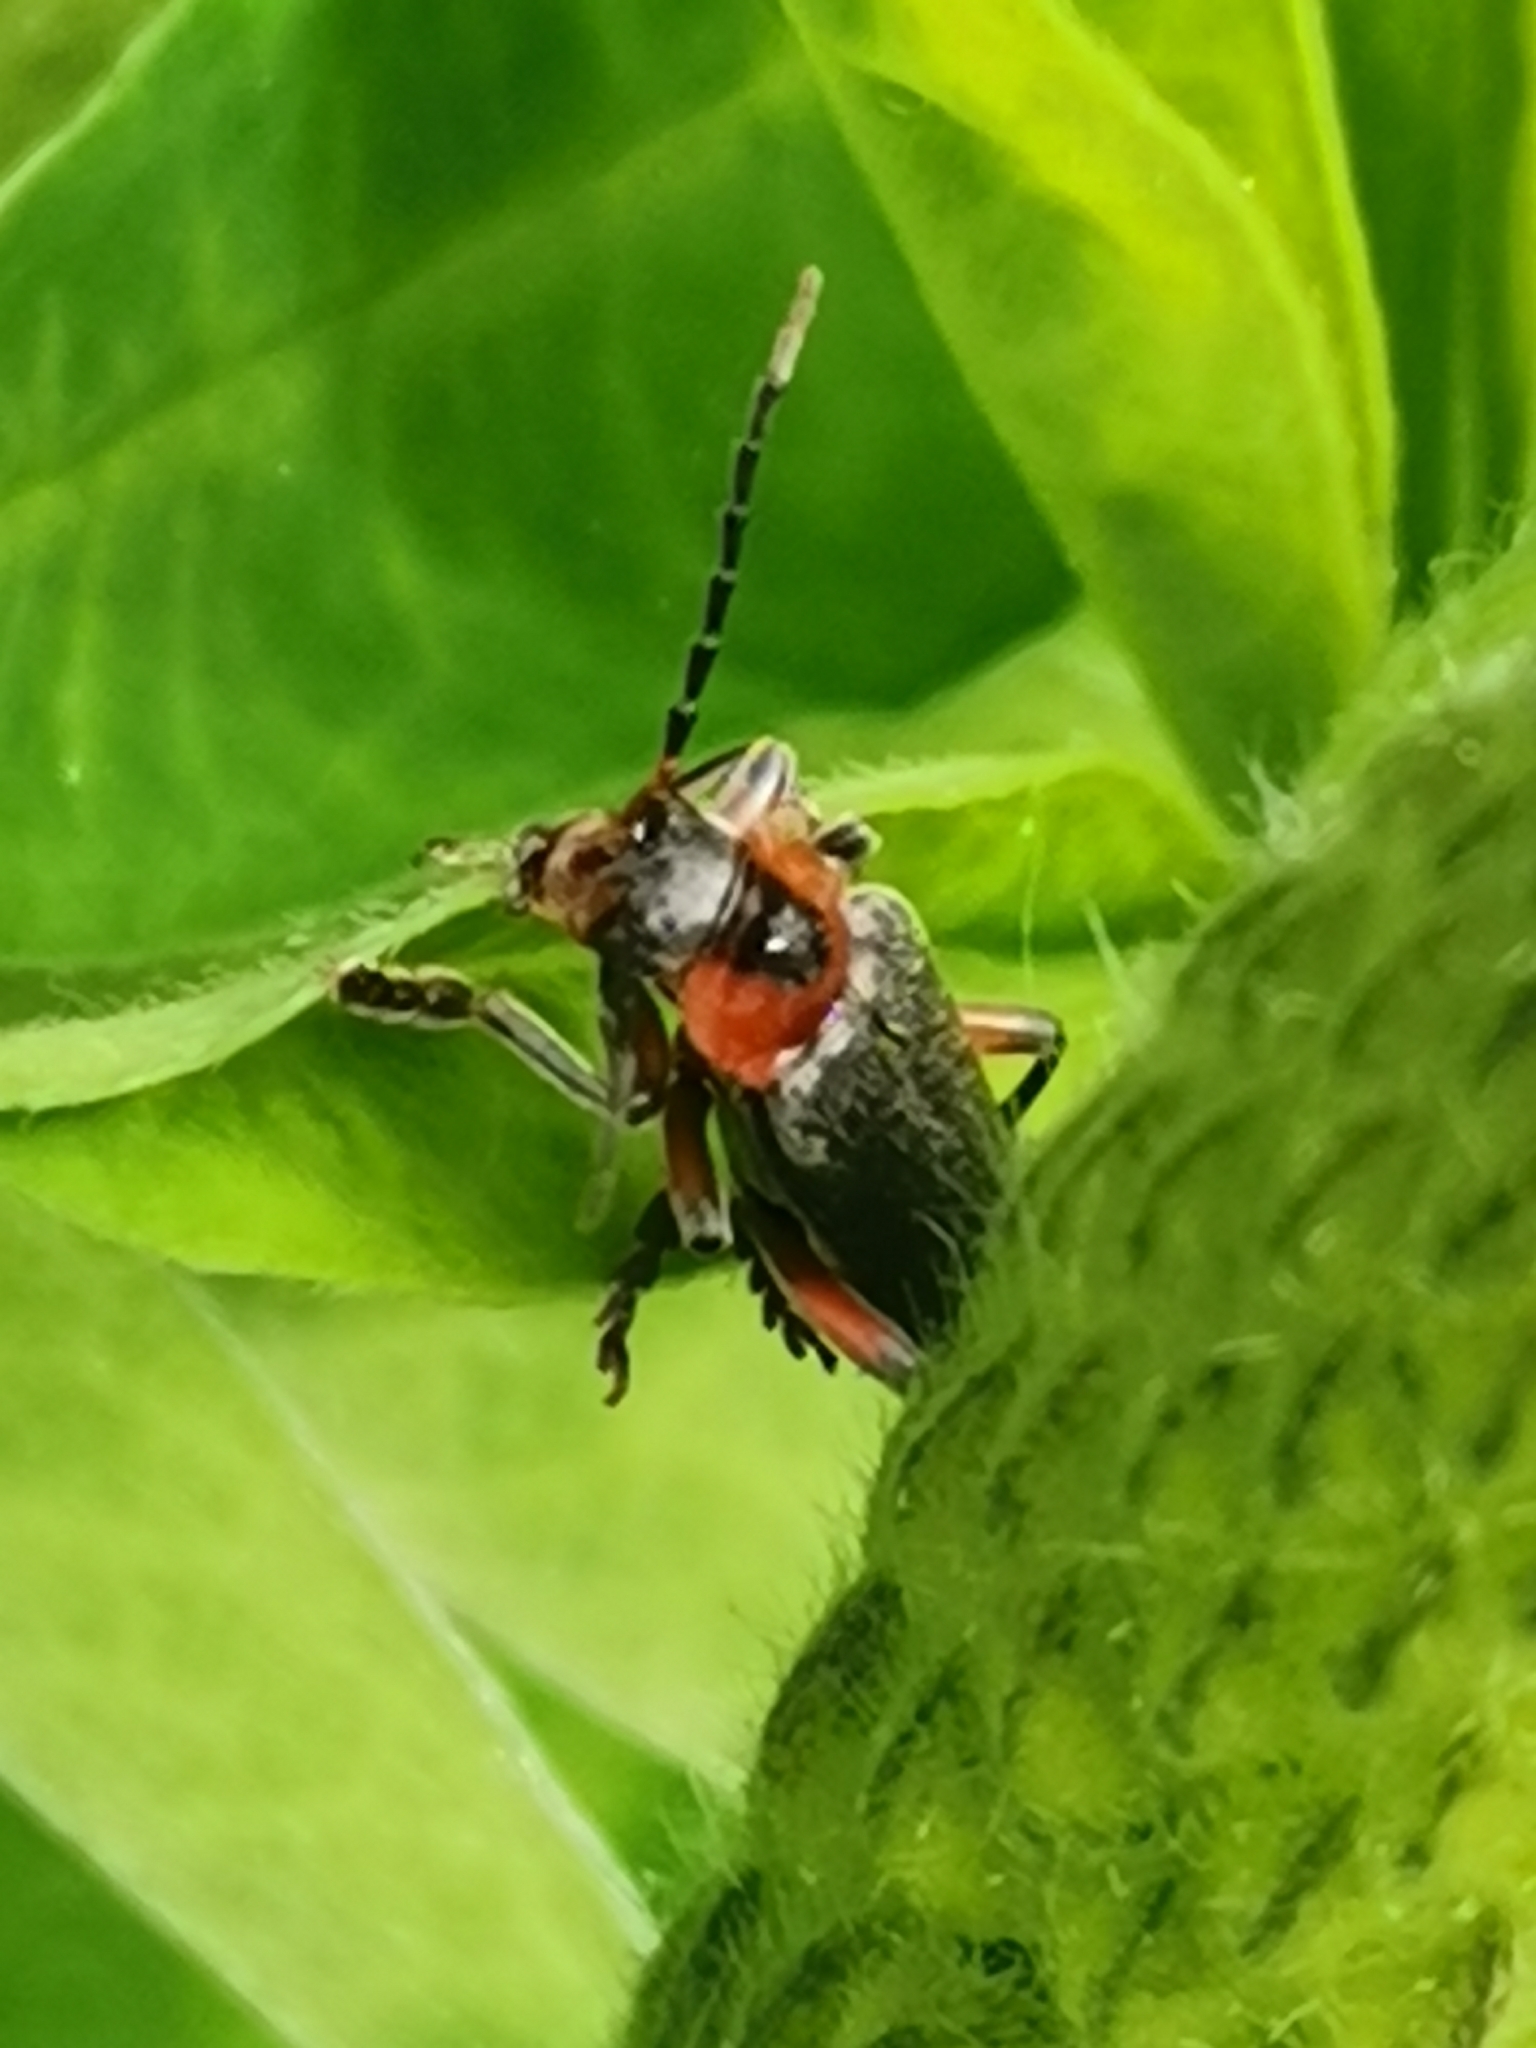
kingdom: Animalia
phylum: Arthropoda
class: Insecta
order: Coleoptera
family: Cantharidae
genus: Cantharis
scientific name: Cantharis rustica
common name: Soldier beetle
